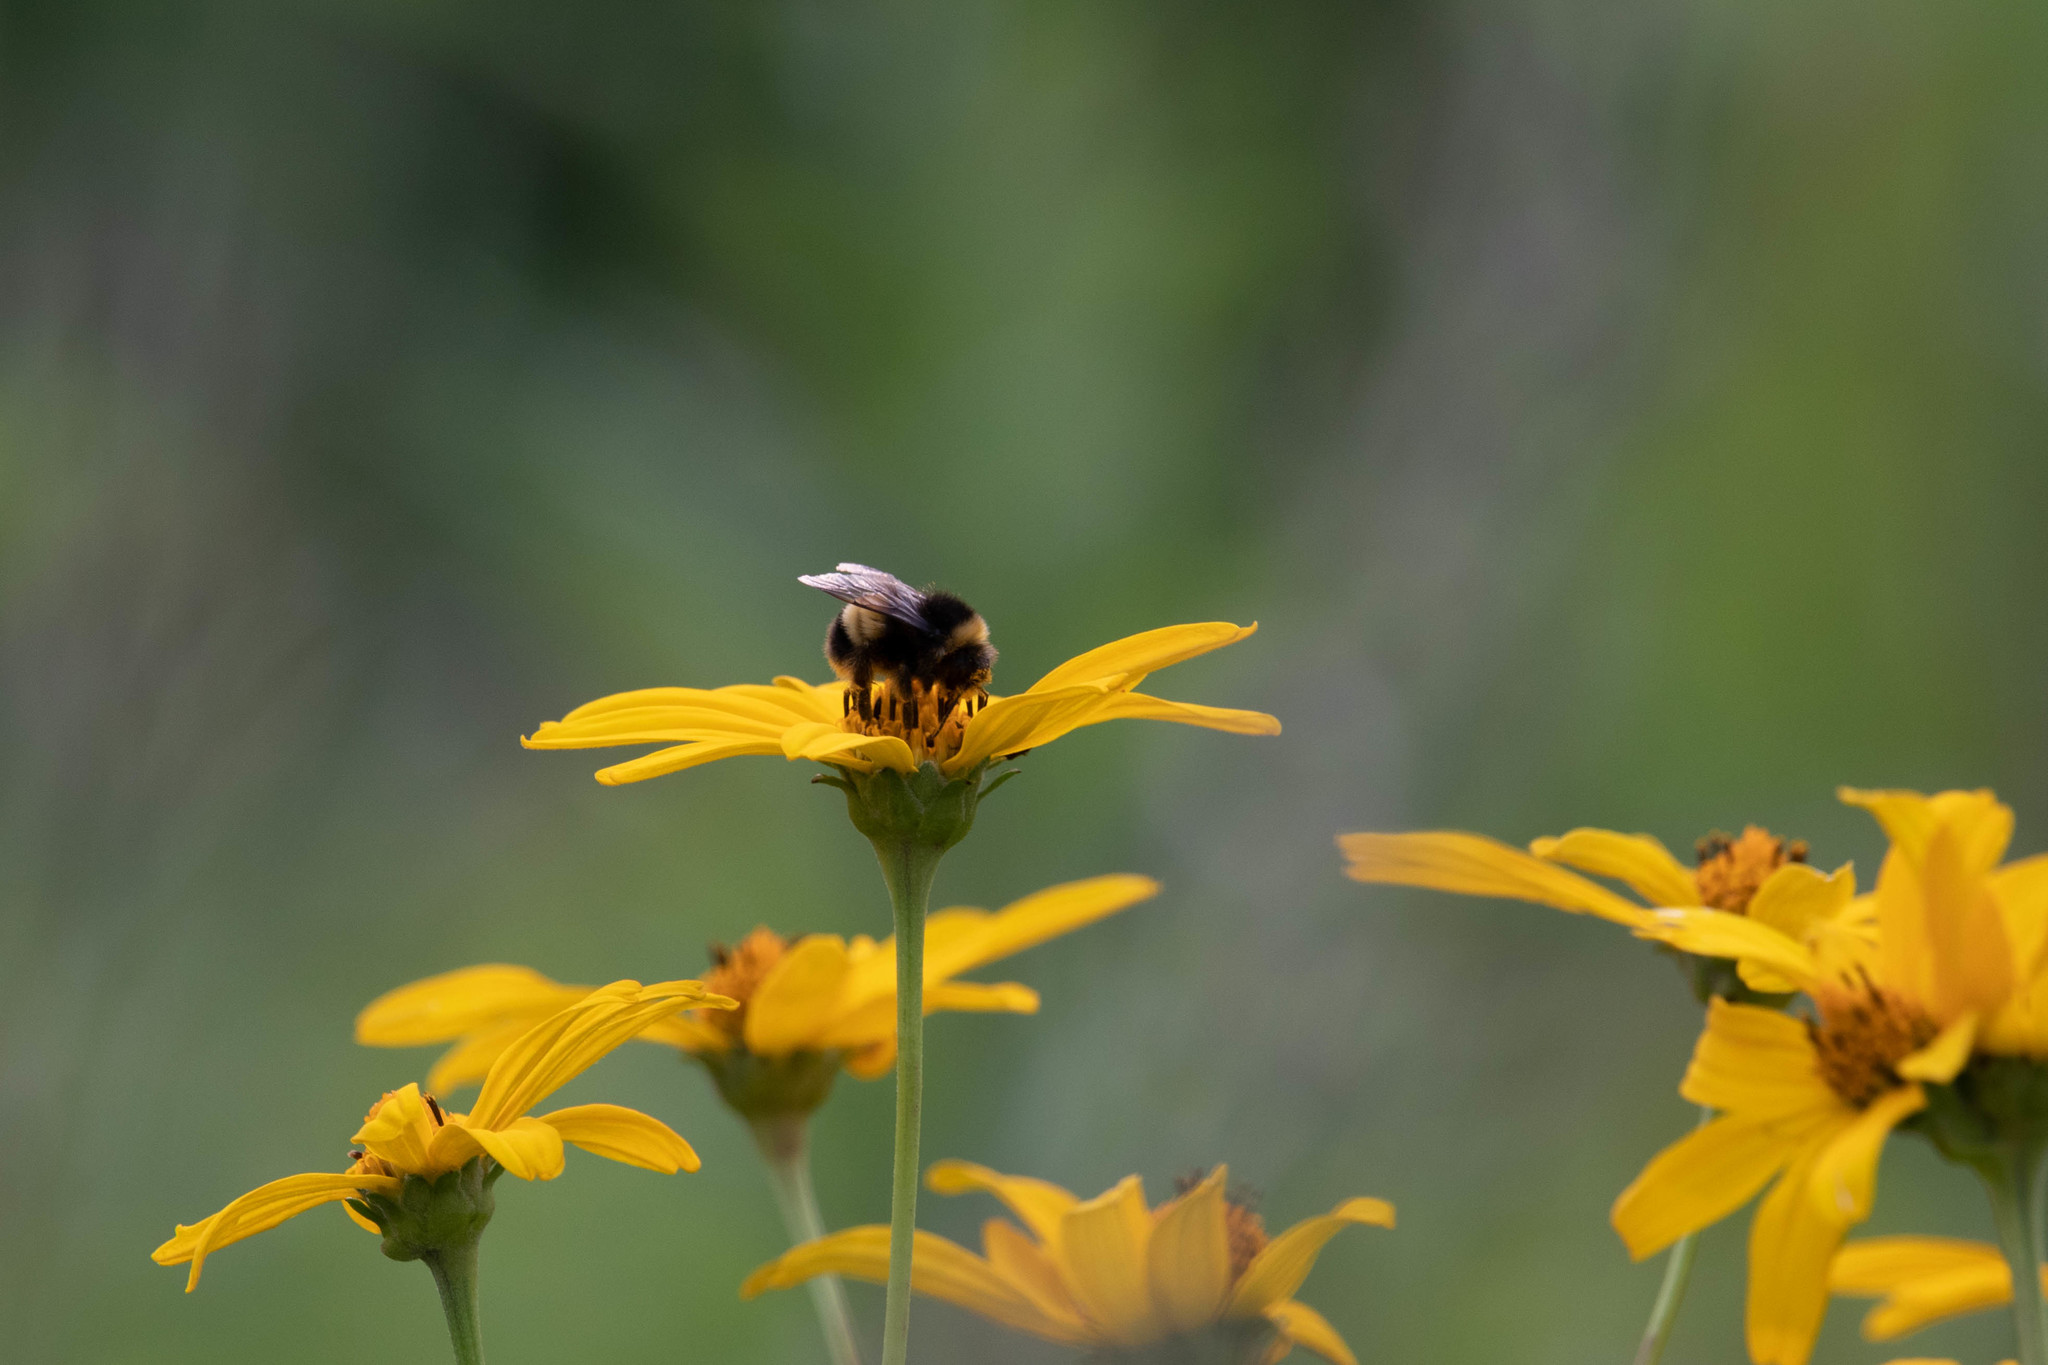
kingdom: Animalia
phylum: Arthropoda
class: Insecta
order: Hymenoptera
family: Apidae
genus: Bombus
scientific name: Bombus terricola
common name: Yellow-banded bumble bee
